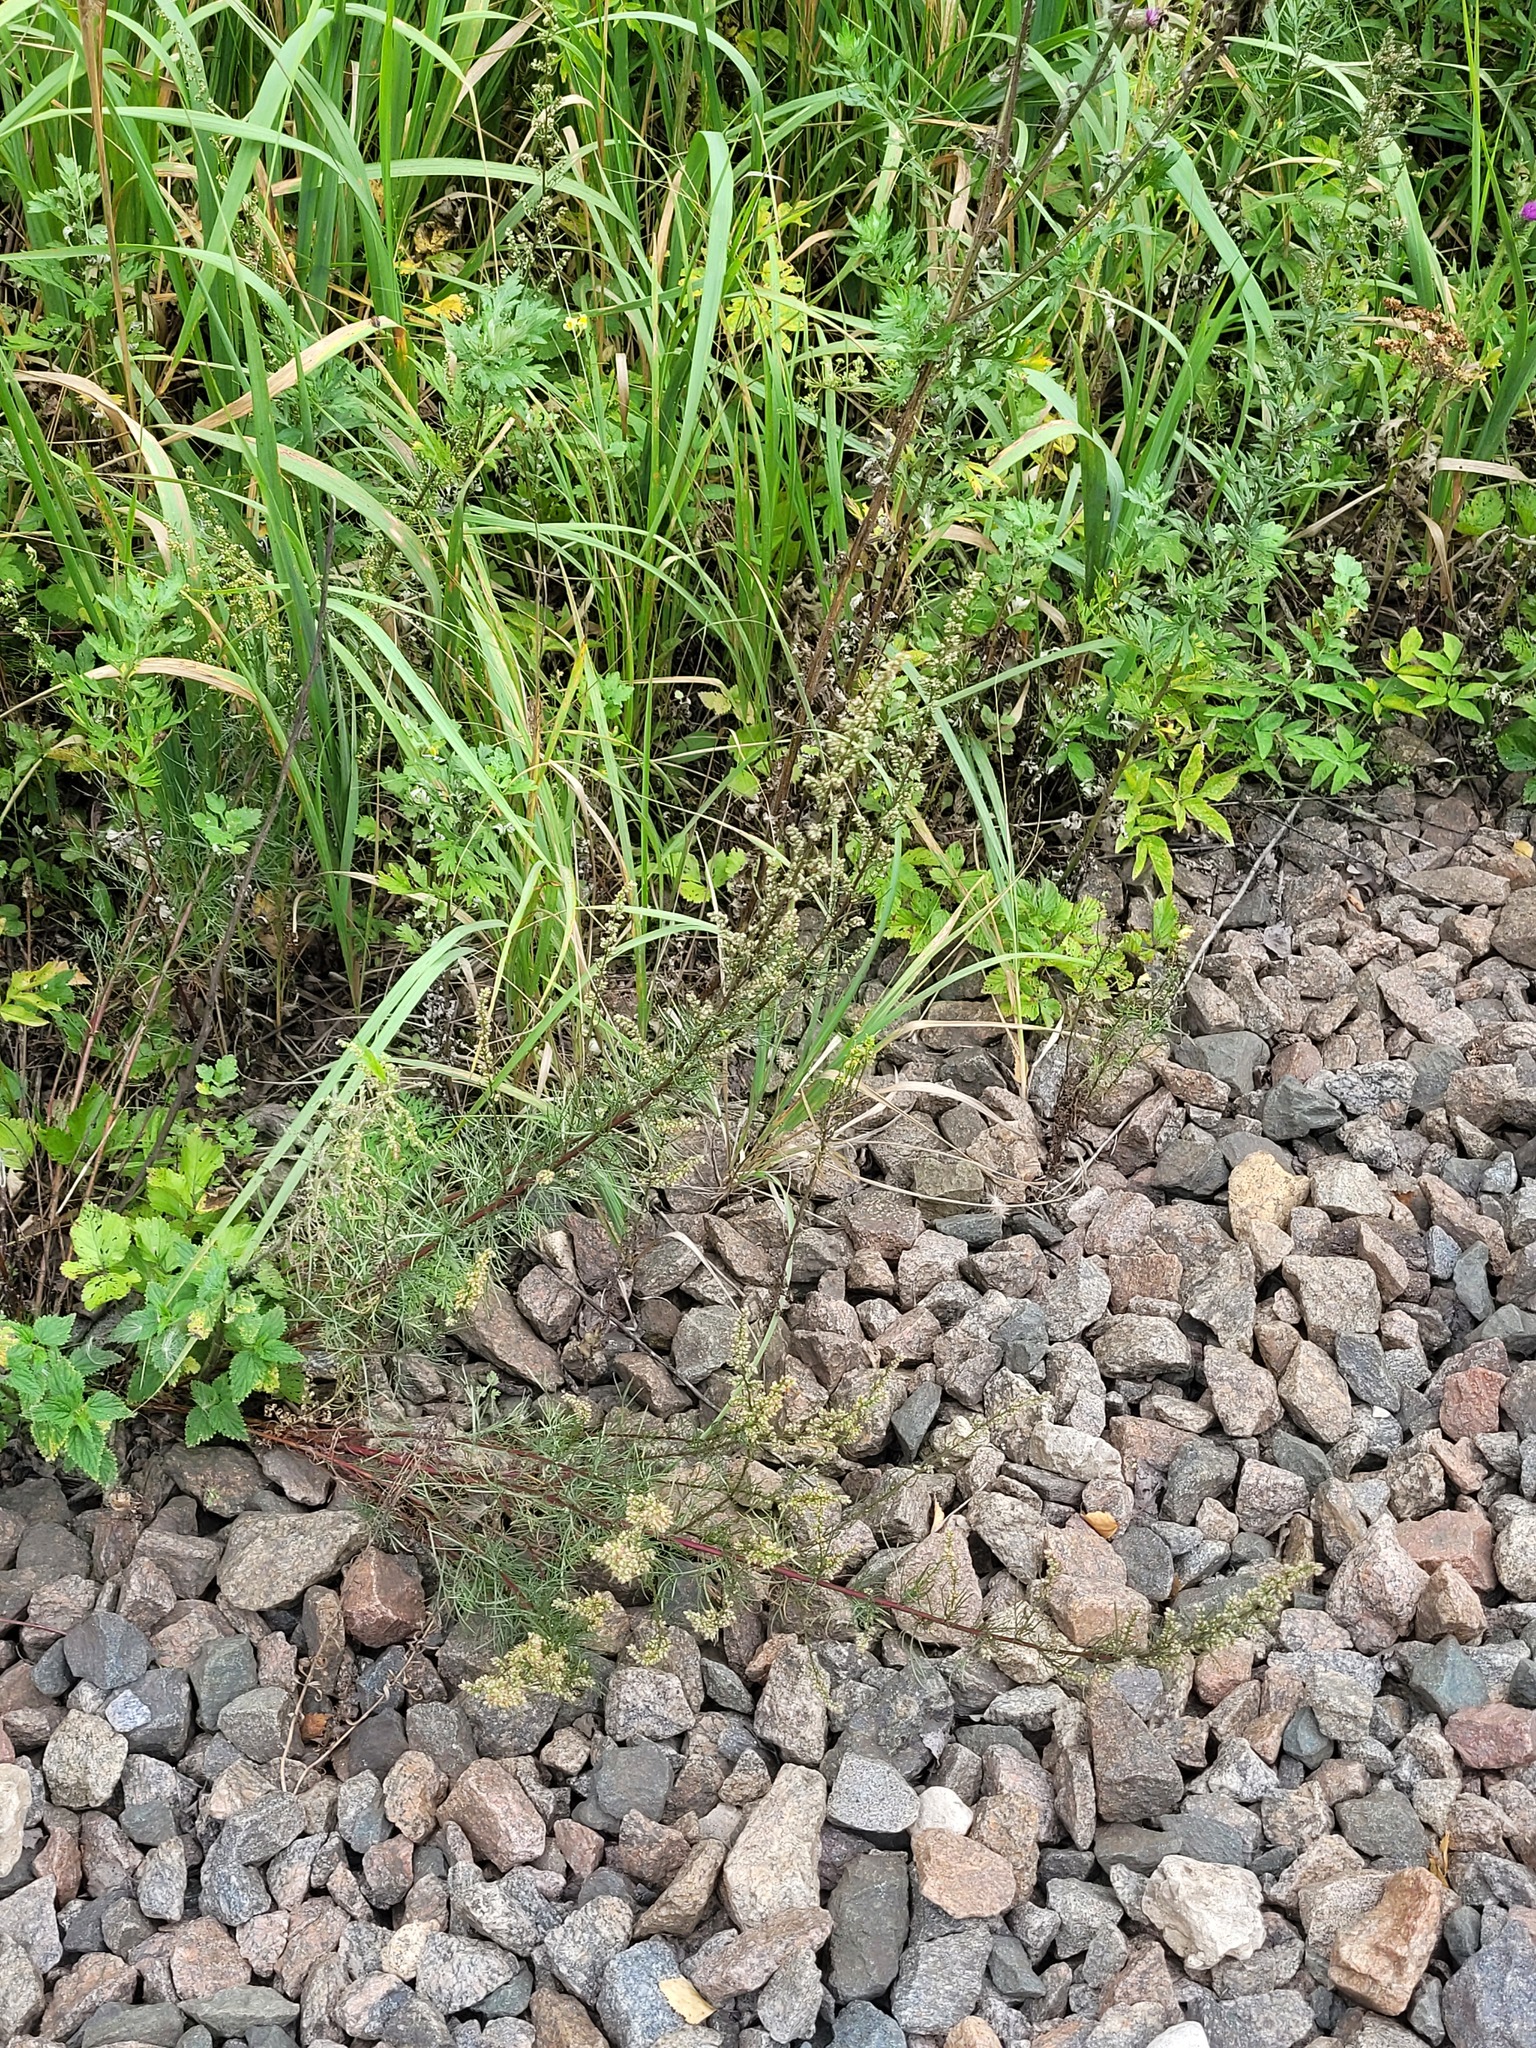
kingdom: Plantae
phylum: Tracheophyta
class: Magnoliopsida
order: Asterales
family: Asteraceae
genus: Artemisia
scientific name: Artemisia campestris
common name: Field wormwood
